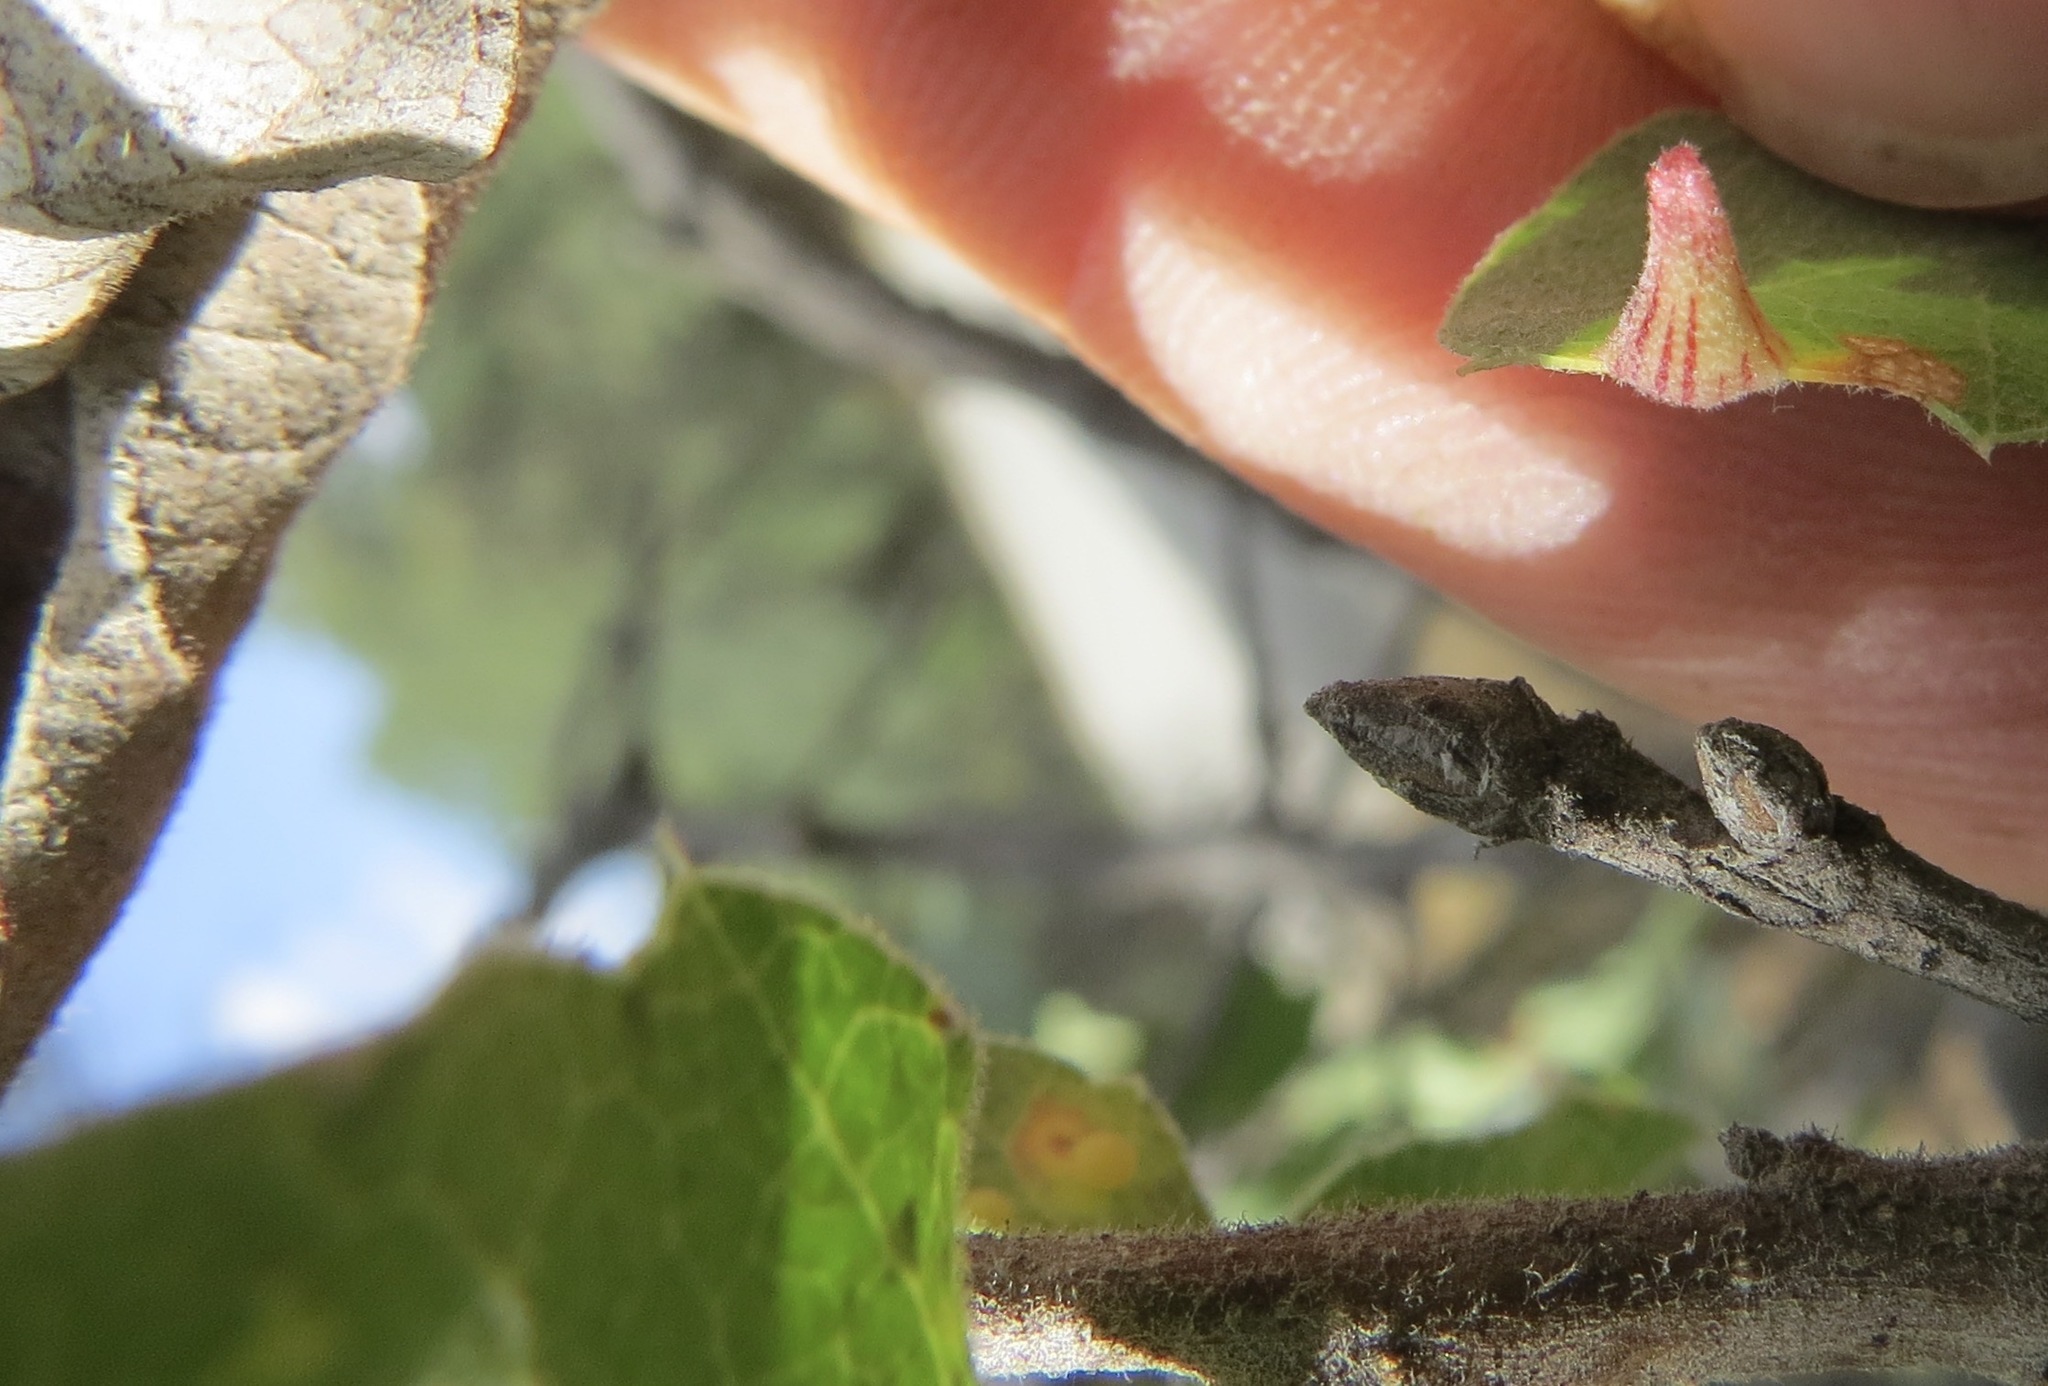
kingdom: Animalia
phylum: Arthropoda
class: Insecta
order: Hymenoptera
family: Cynipidae
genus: Andricus
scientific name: Andricus
